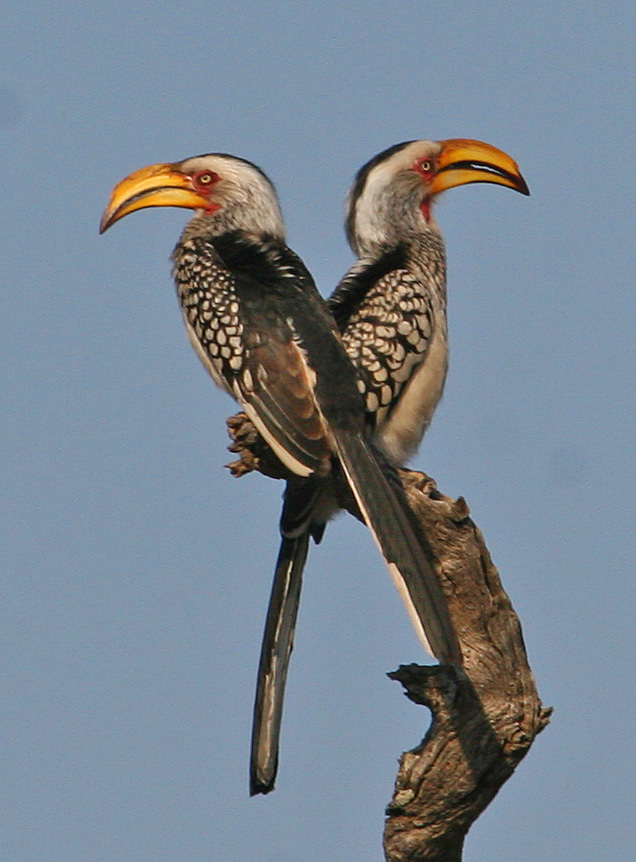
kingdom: Animalia
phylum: Chordata
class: Aves
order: Bucerotiformes
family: Bucerotidae
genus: Tockus
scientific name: Tockus leucomelas
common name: Southern yellow-billed hornbill
